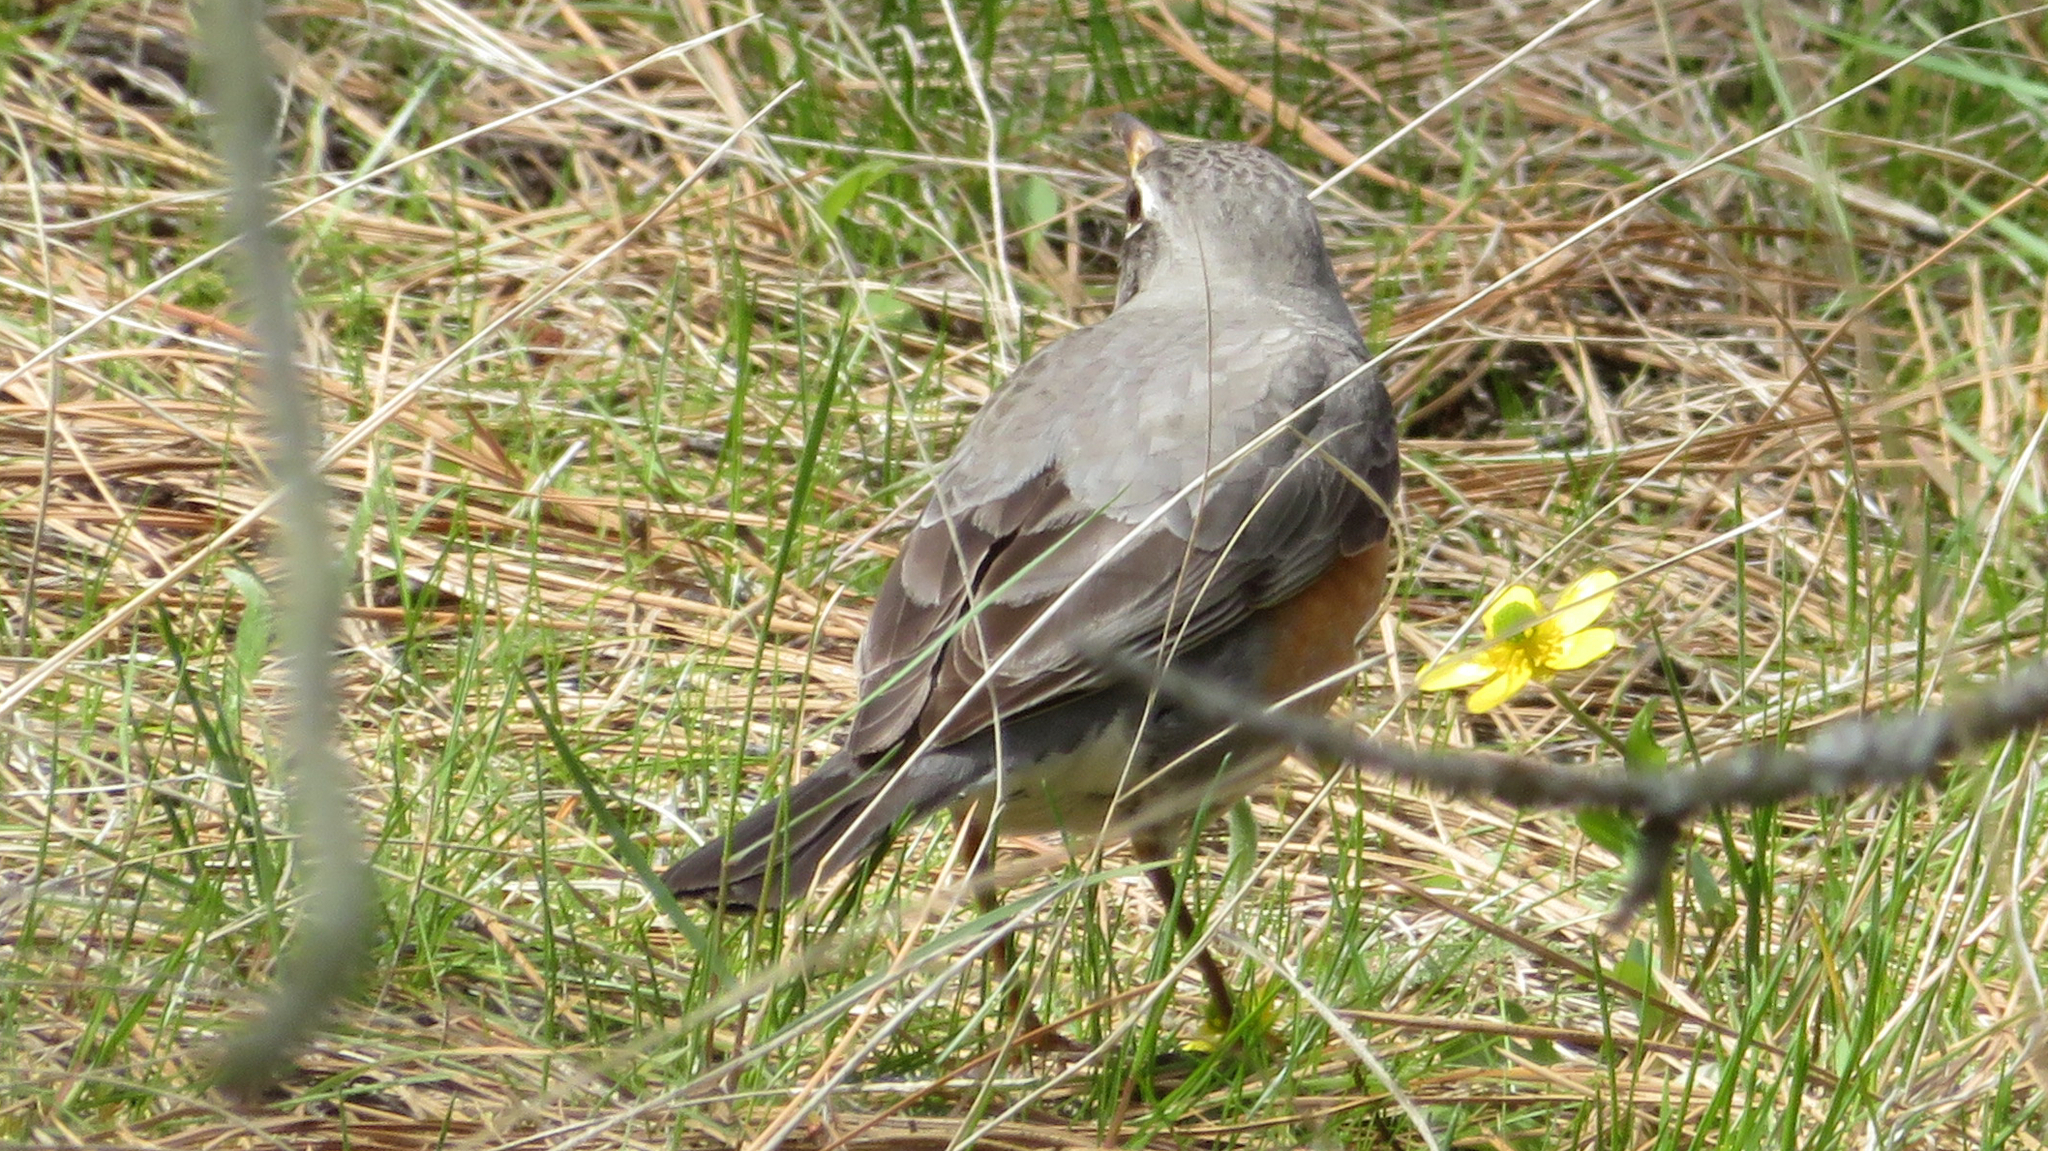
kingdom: Animalia
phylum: Chordata
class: Aves
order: Passeriformes
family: Turdidae
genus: Turdus
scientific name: Turdus migratorius
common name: American robin
